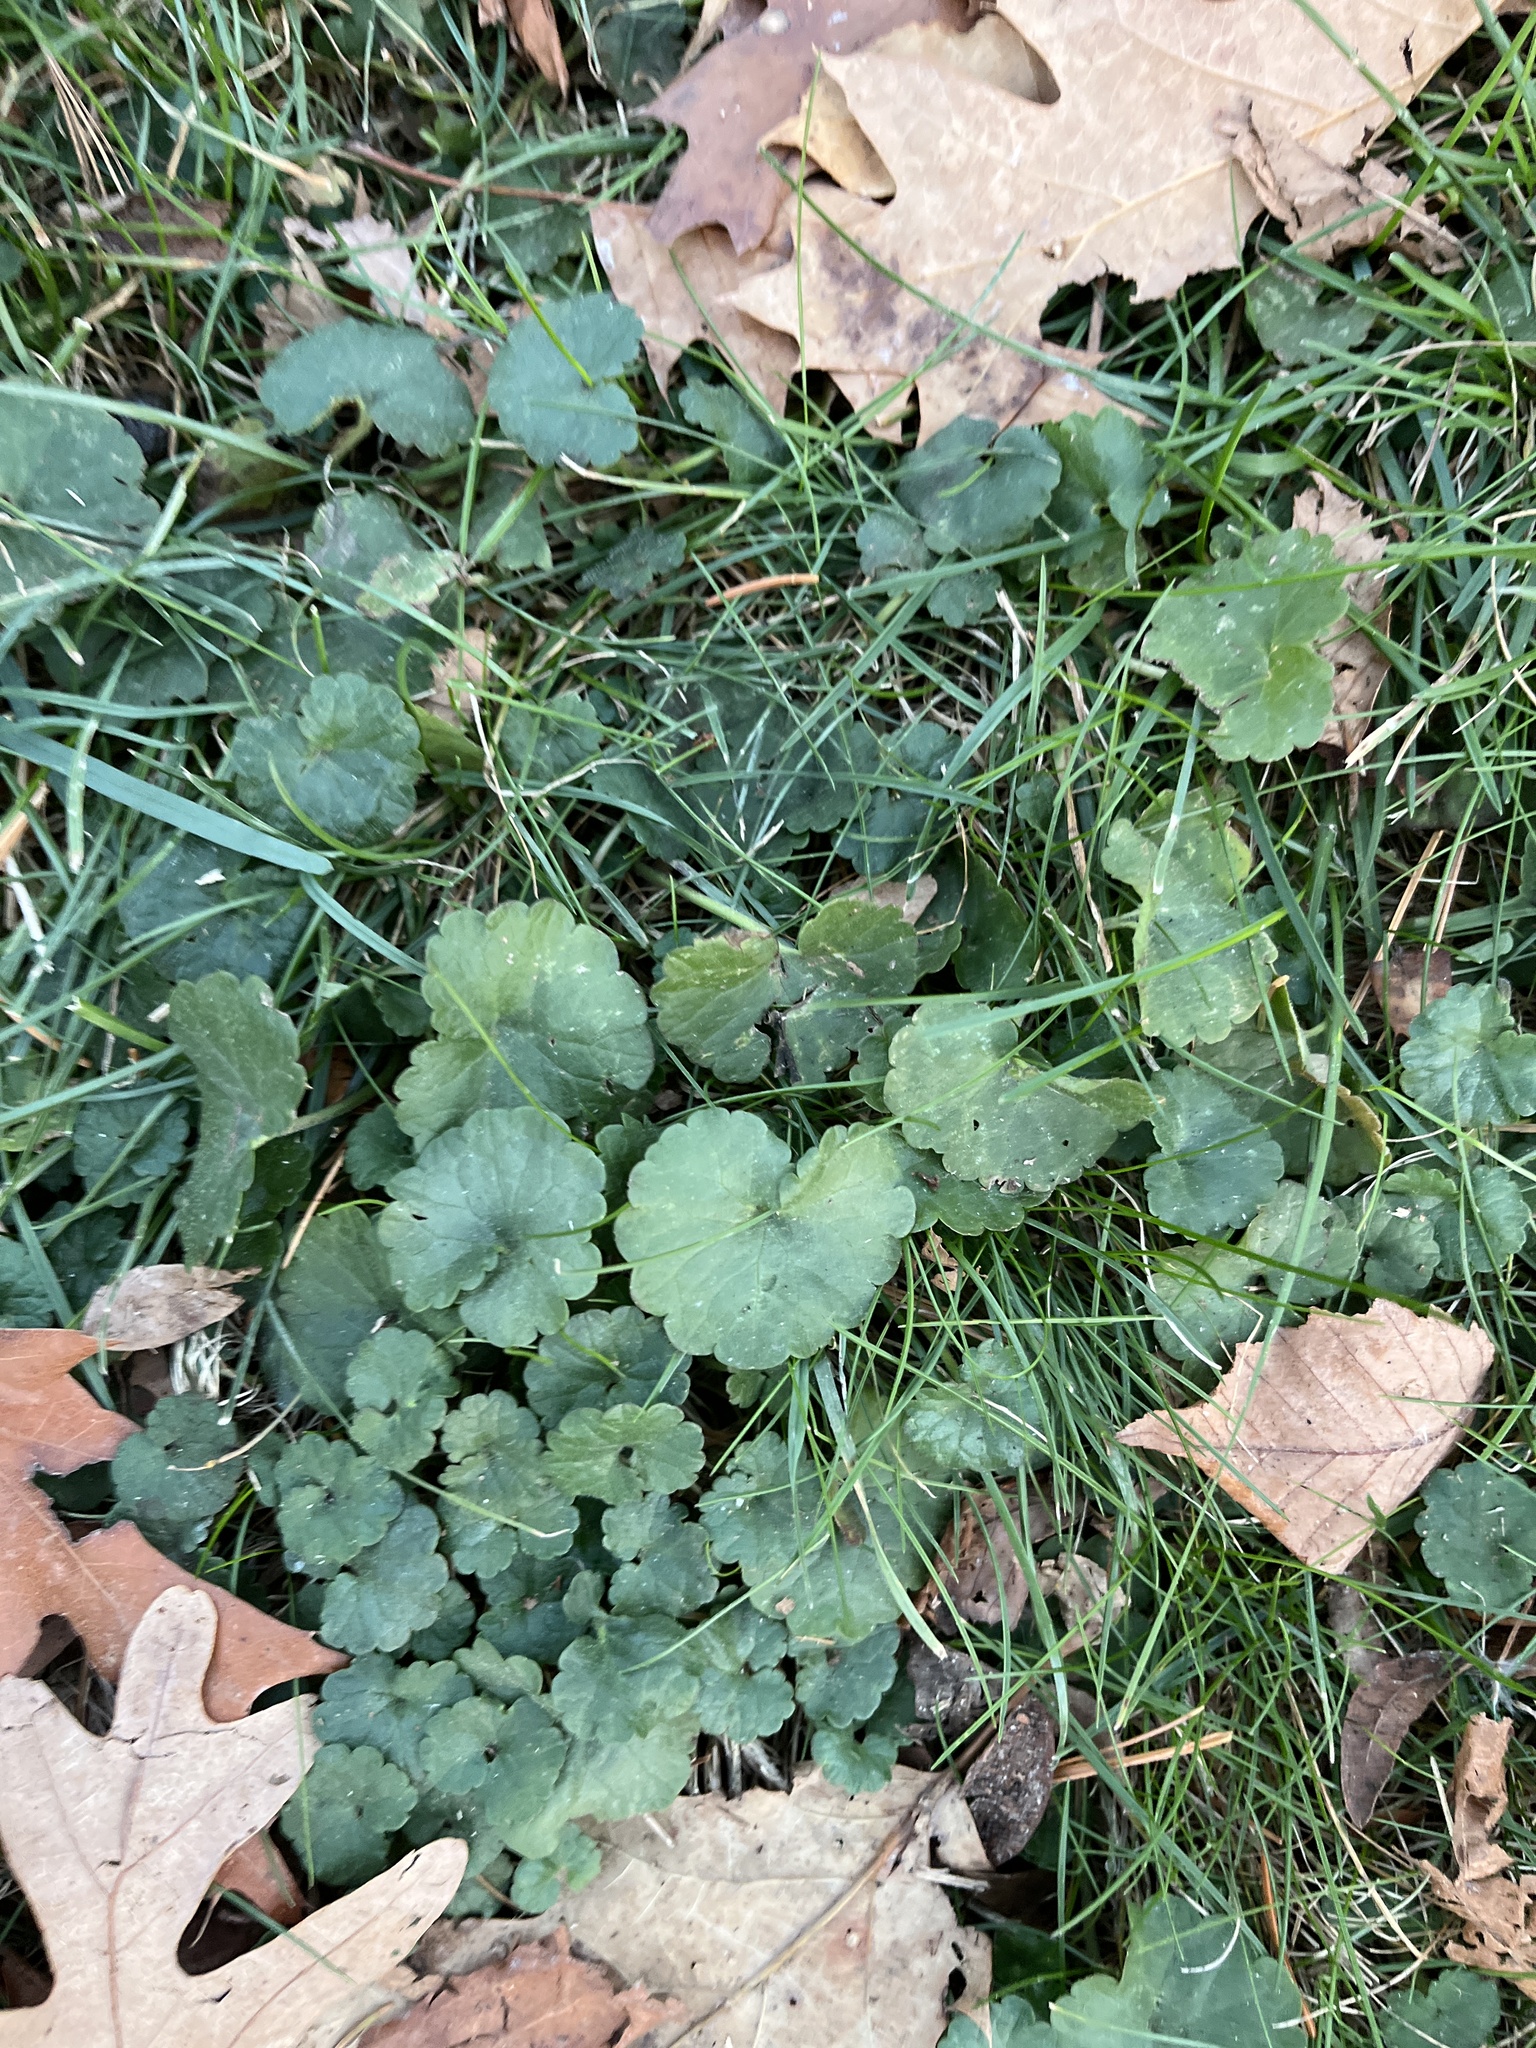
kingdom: Plantae
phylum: Tracheophyta
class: Magnoliopsida
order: Lamiales
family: Lamiaceae
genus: Glechoma
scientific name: Glechoma hederacea
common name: Ground ivy
